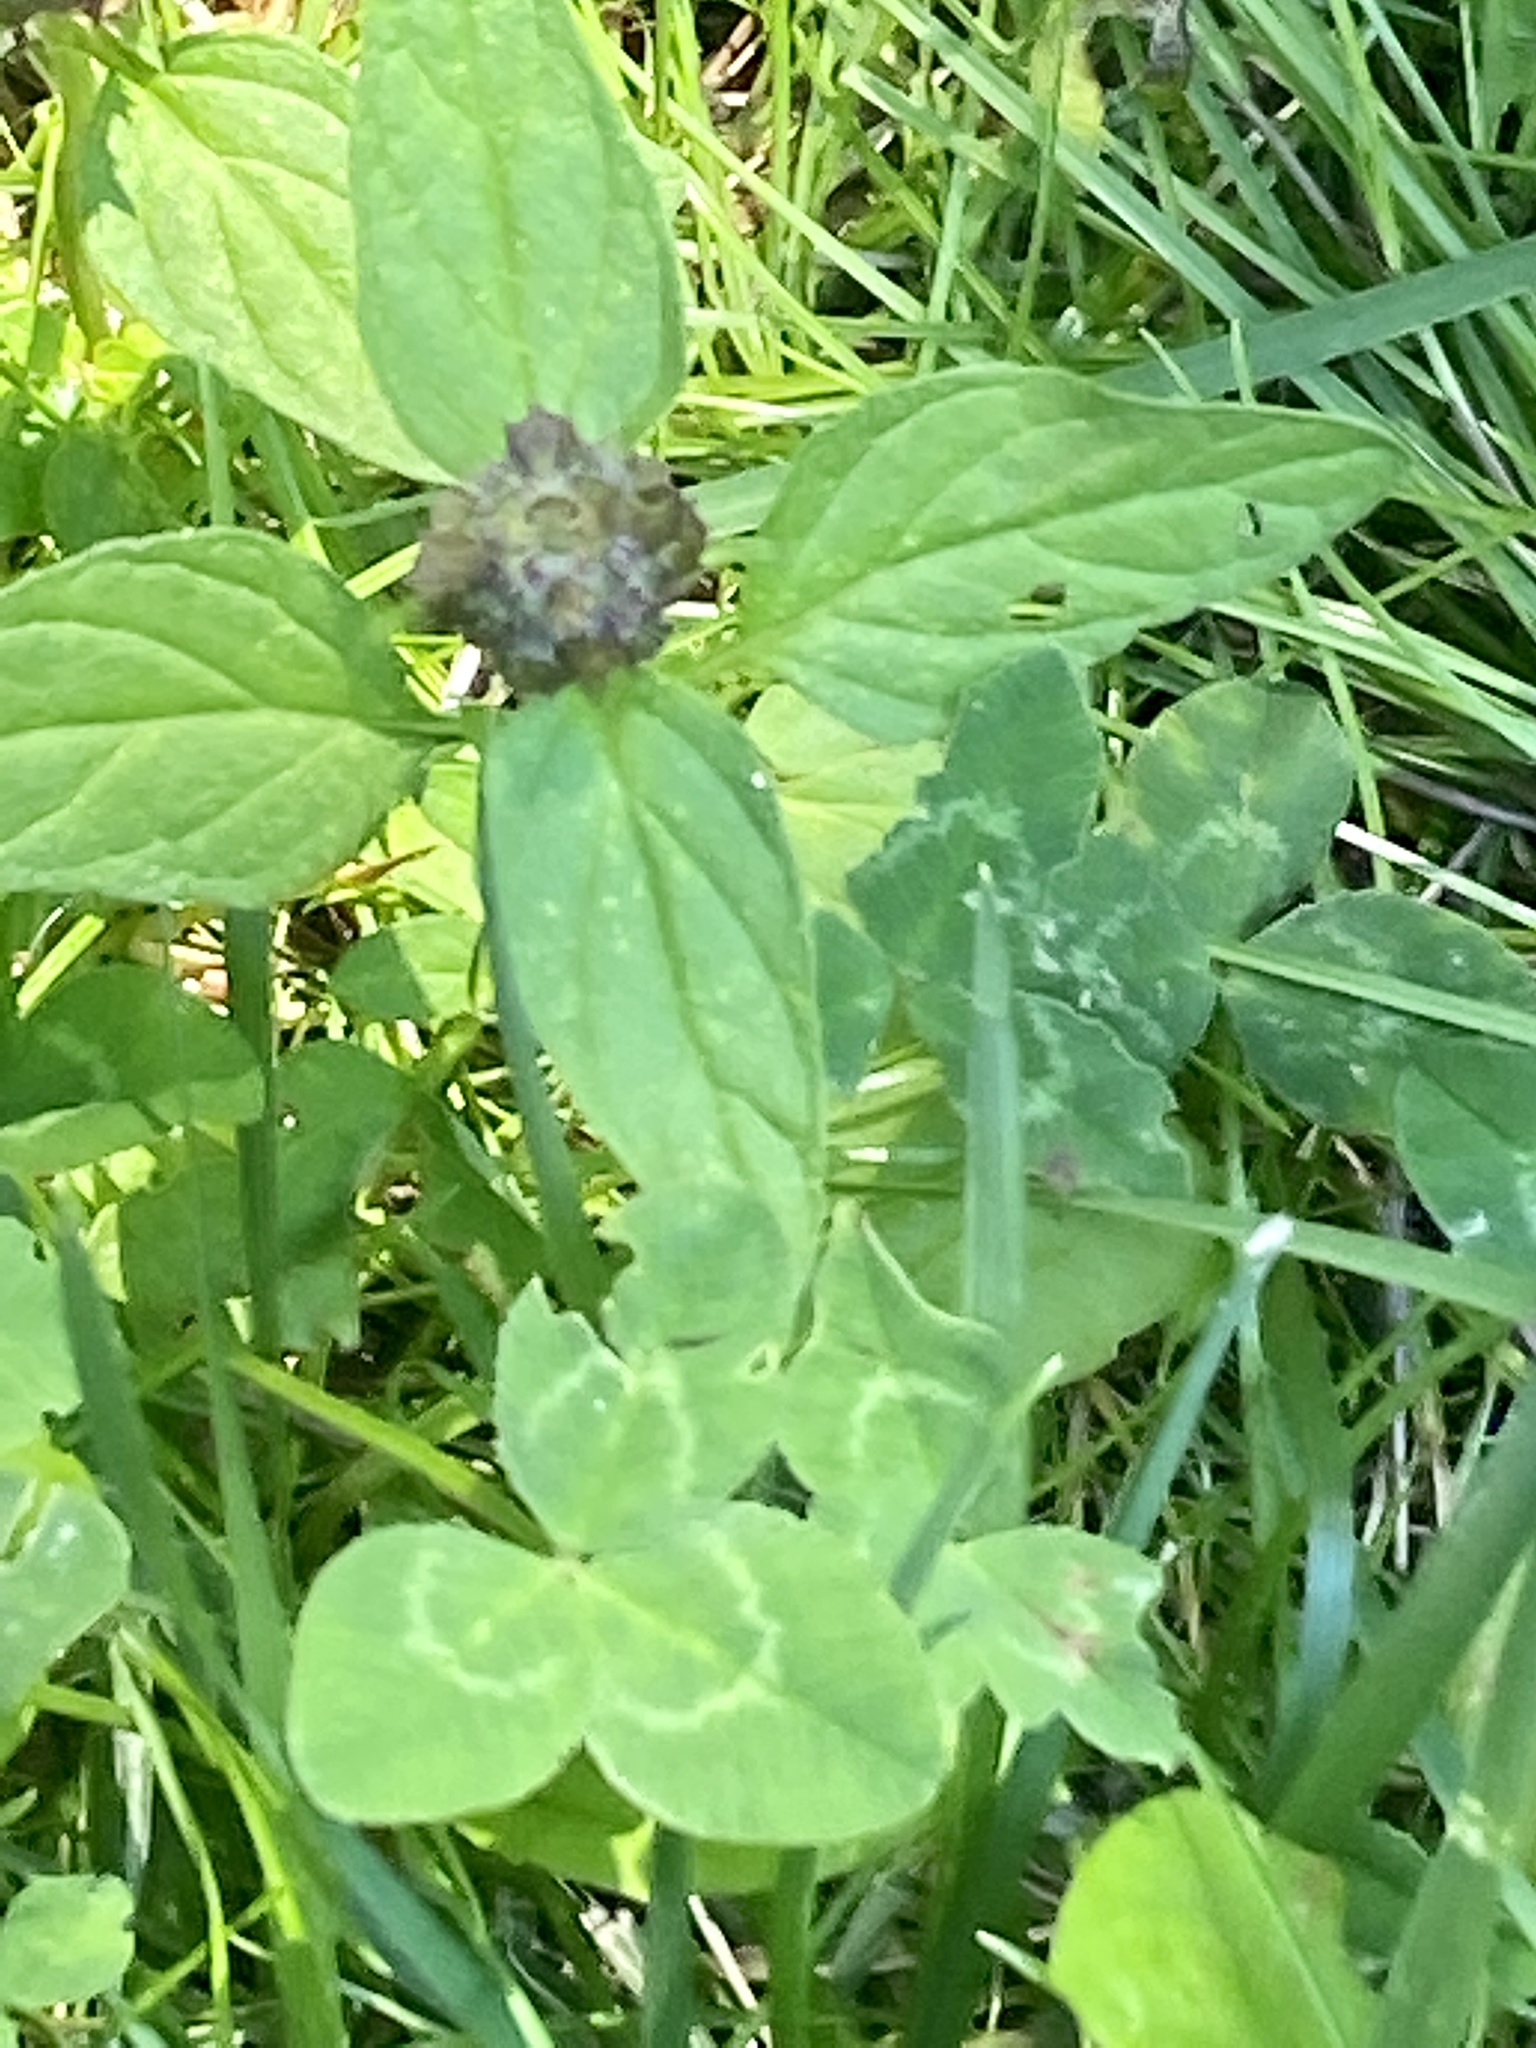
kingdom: Plantae
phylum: Tracheophyta
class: Magnoliopsida
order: Lamiales
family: Lamiaceae
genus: Prunella
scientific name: Prunella vulgaris
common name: Heal-all
